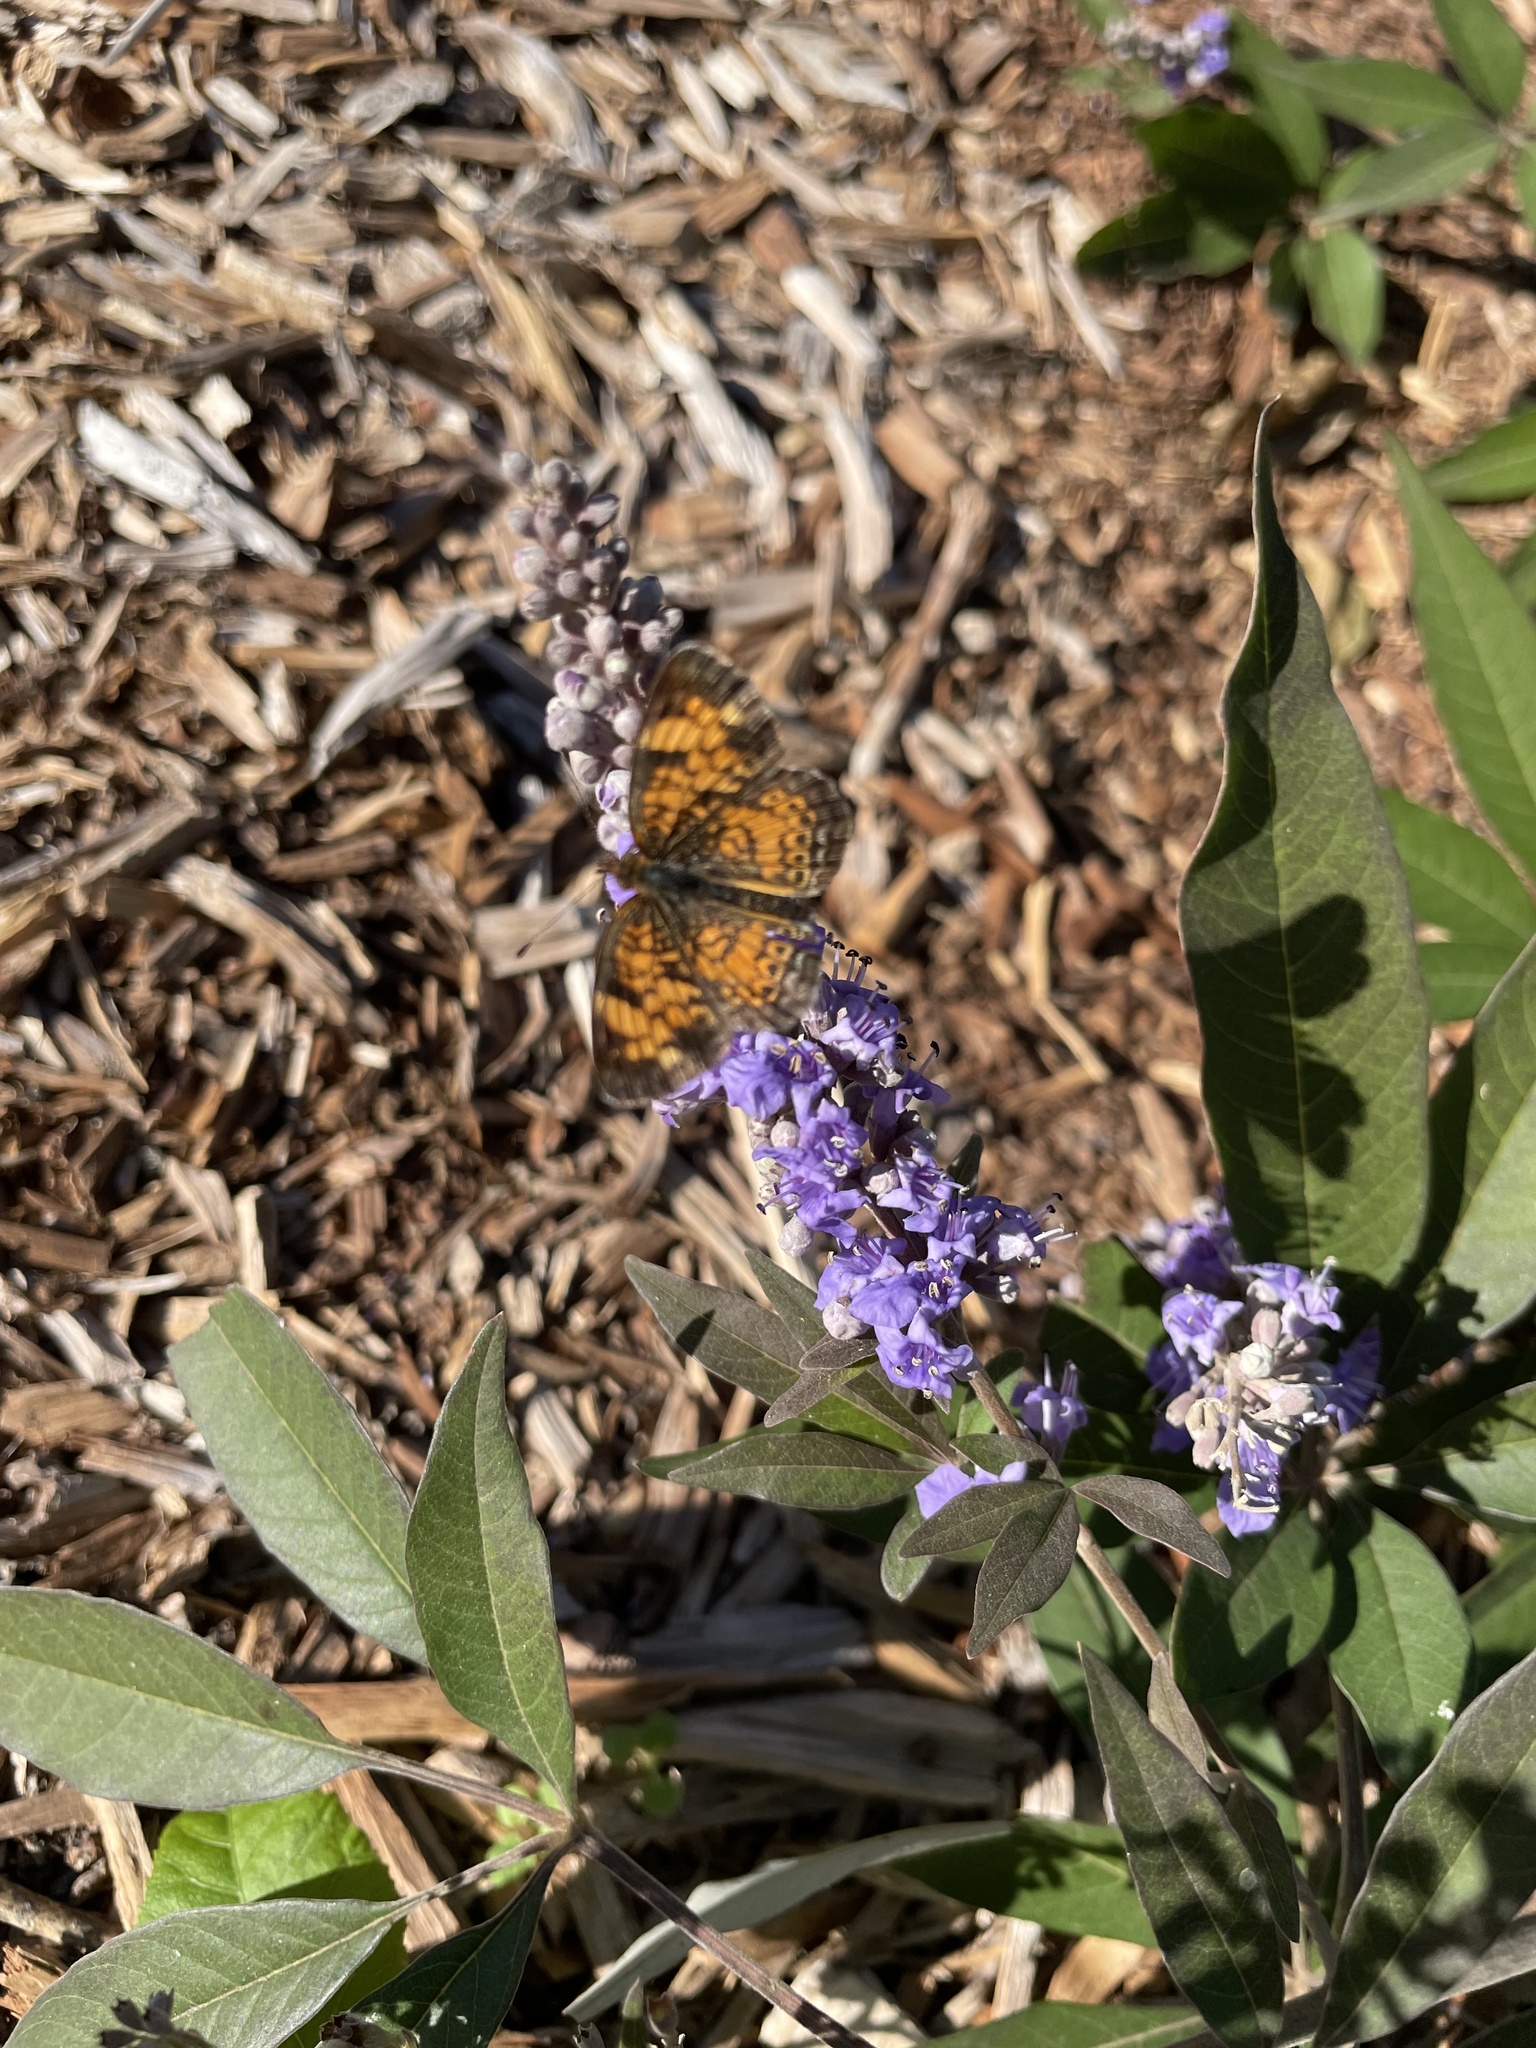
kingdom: Animalia
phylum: Arthropoda
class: Insecta
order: Lepidoptera
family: Nymphalidae
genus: Phyciodes
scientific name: Phyciodes tharos
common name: Pearl crescent
